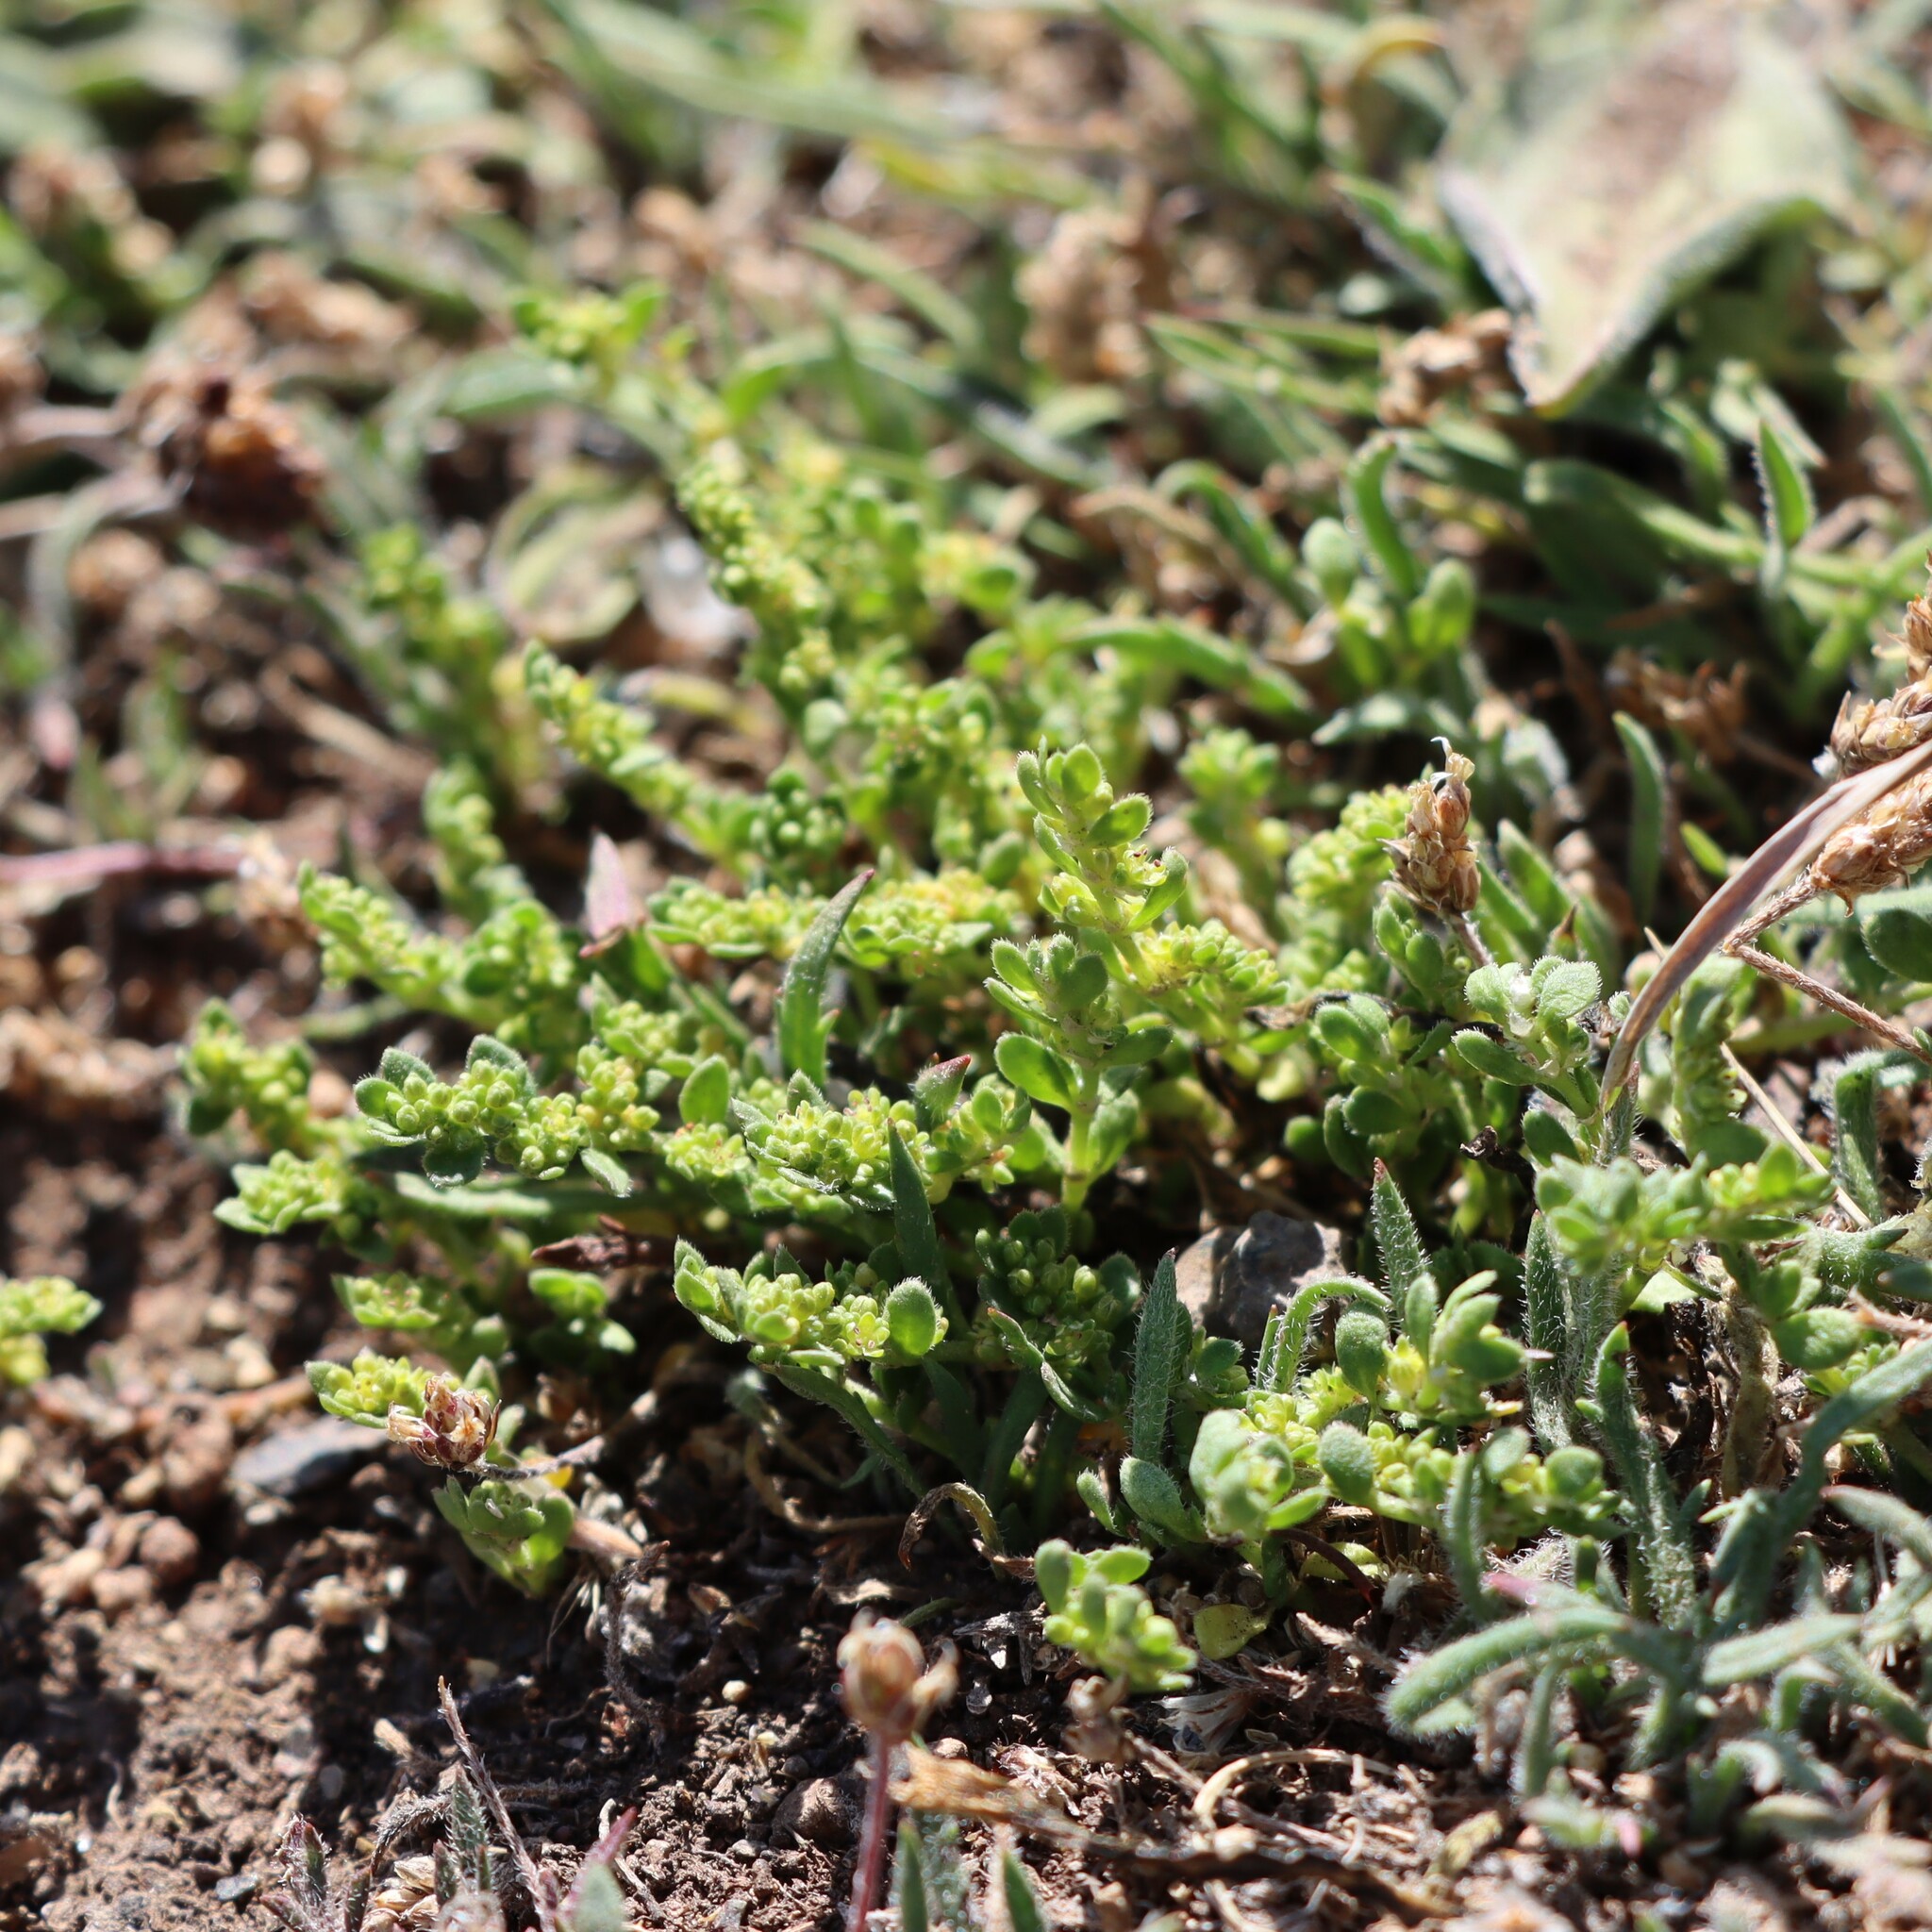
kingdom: Plantae
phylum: Tracheophyta
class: Magnoliopsida
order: Caryophyllales
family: Caryophyllaceae
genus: Herniaria
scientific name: Herniaria ciliolata
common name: Fringed rupture-wort
